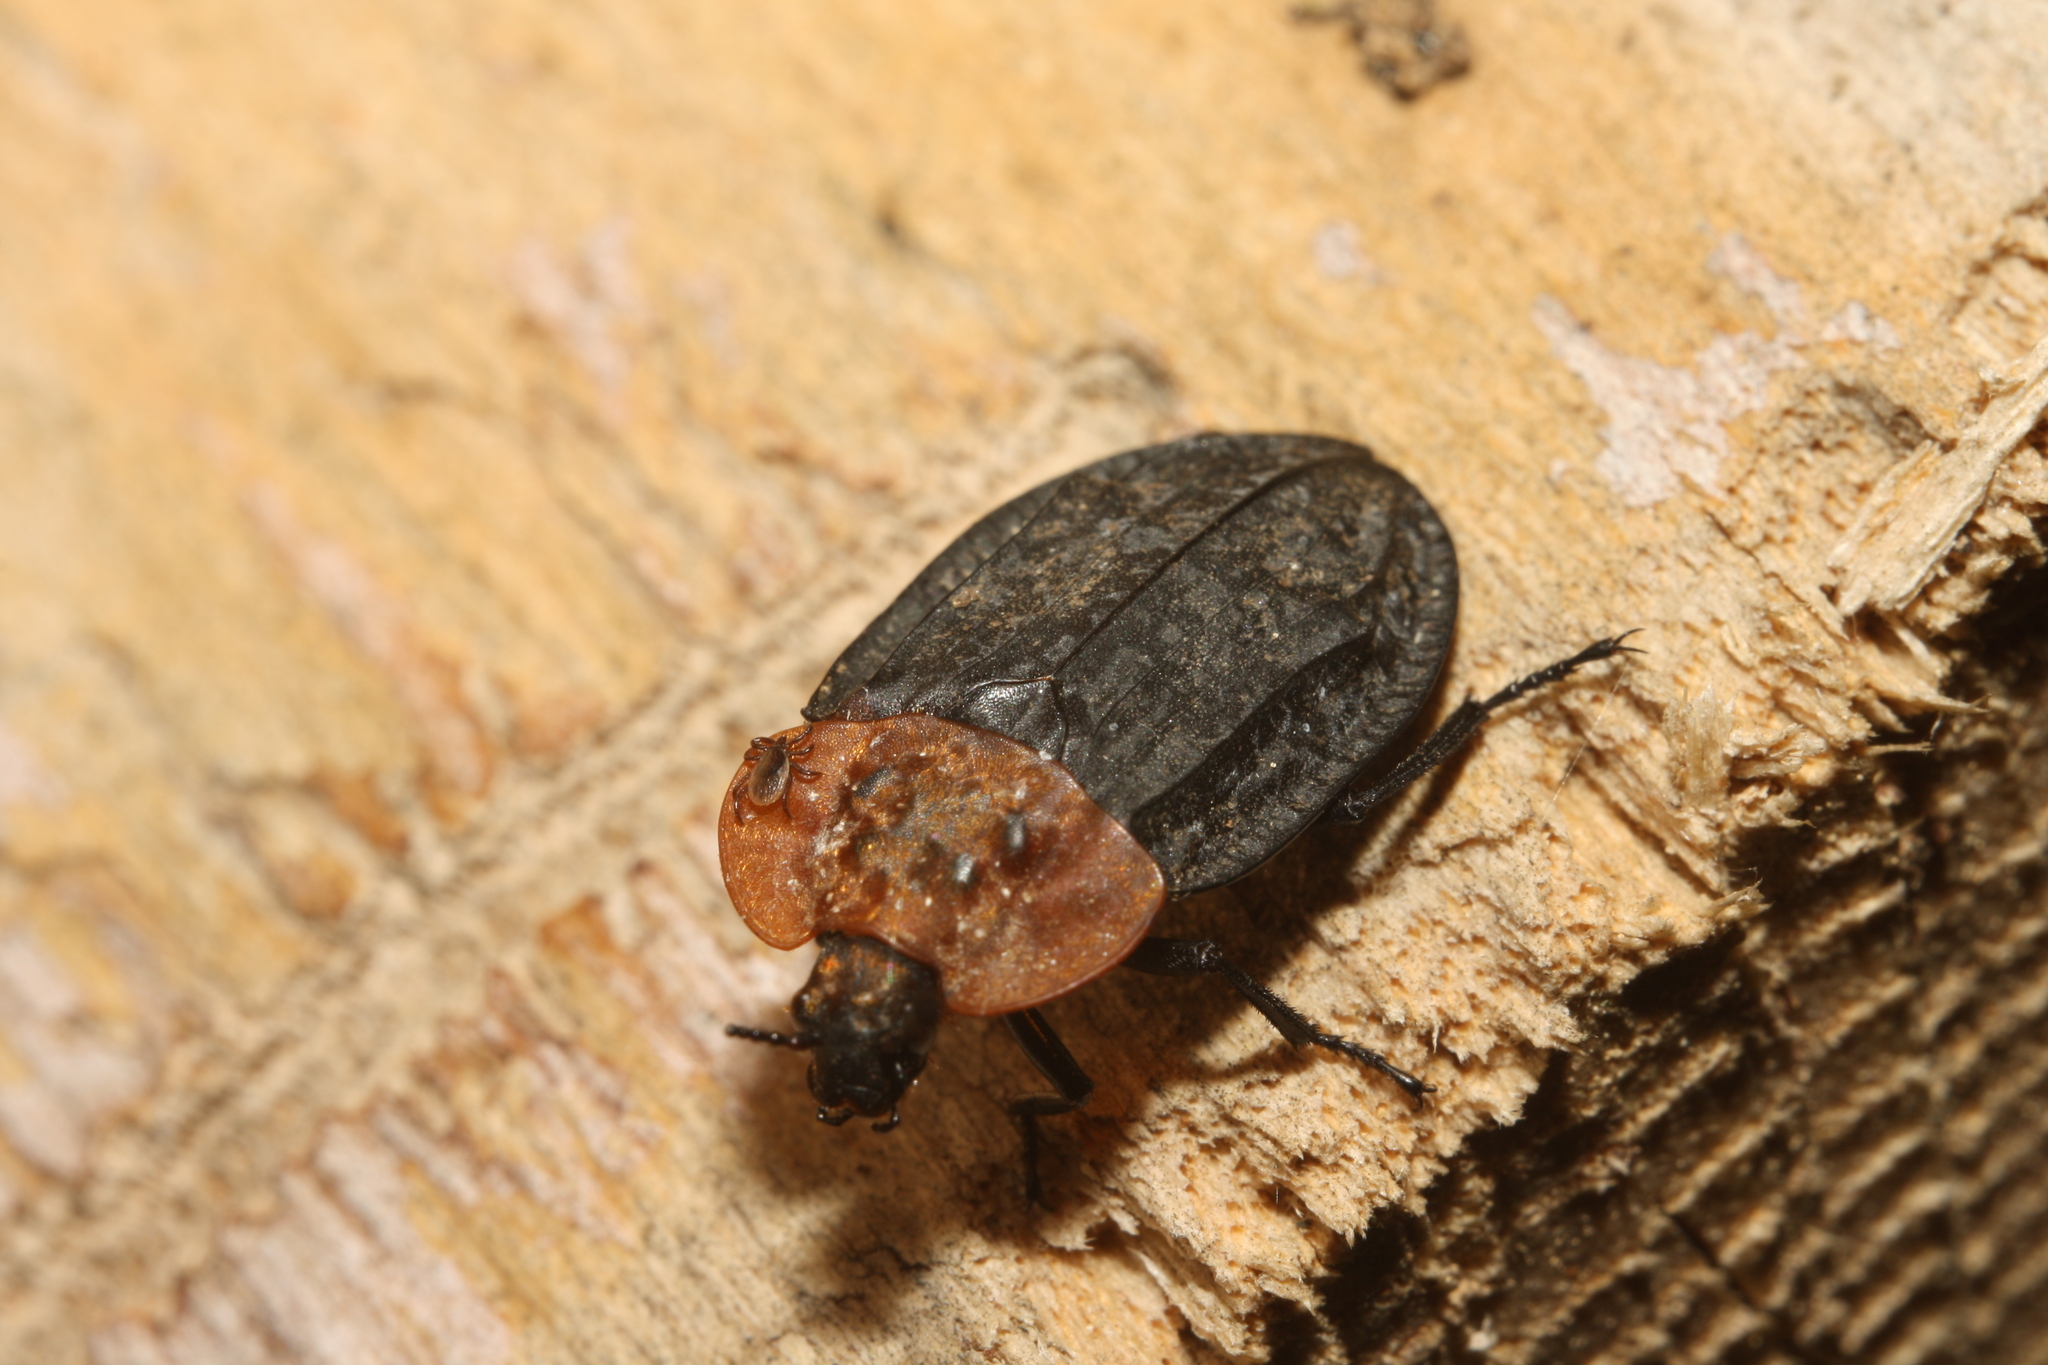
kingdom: Animalia
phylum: Arthropoda
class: Insecta
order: Coleoptera
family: Staphylinidae
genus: Oiceoptoma
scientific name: Oiceoptoma thoracicum
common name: Red-breasted carrion beetle
